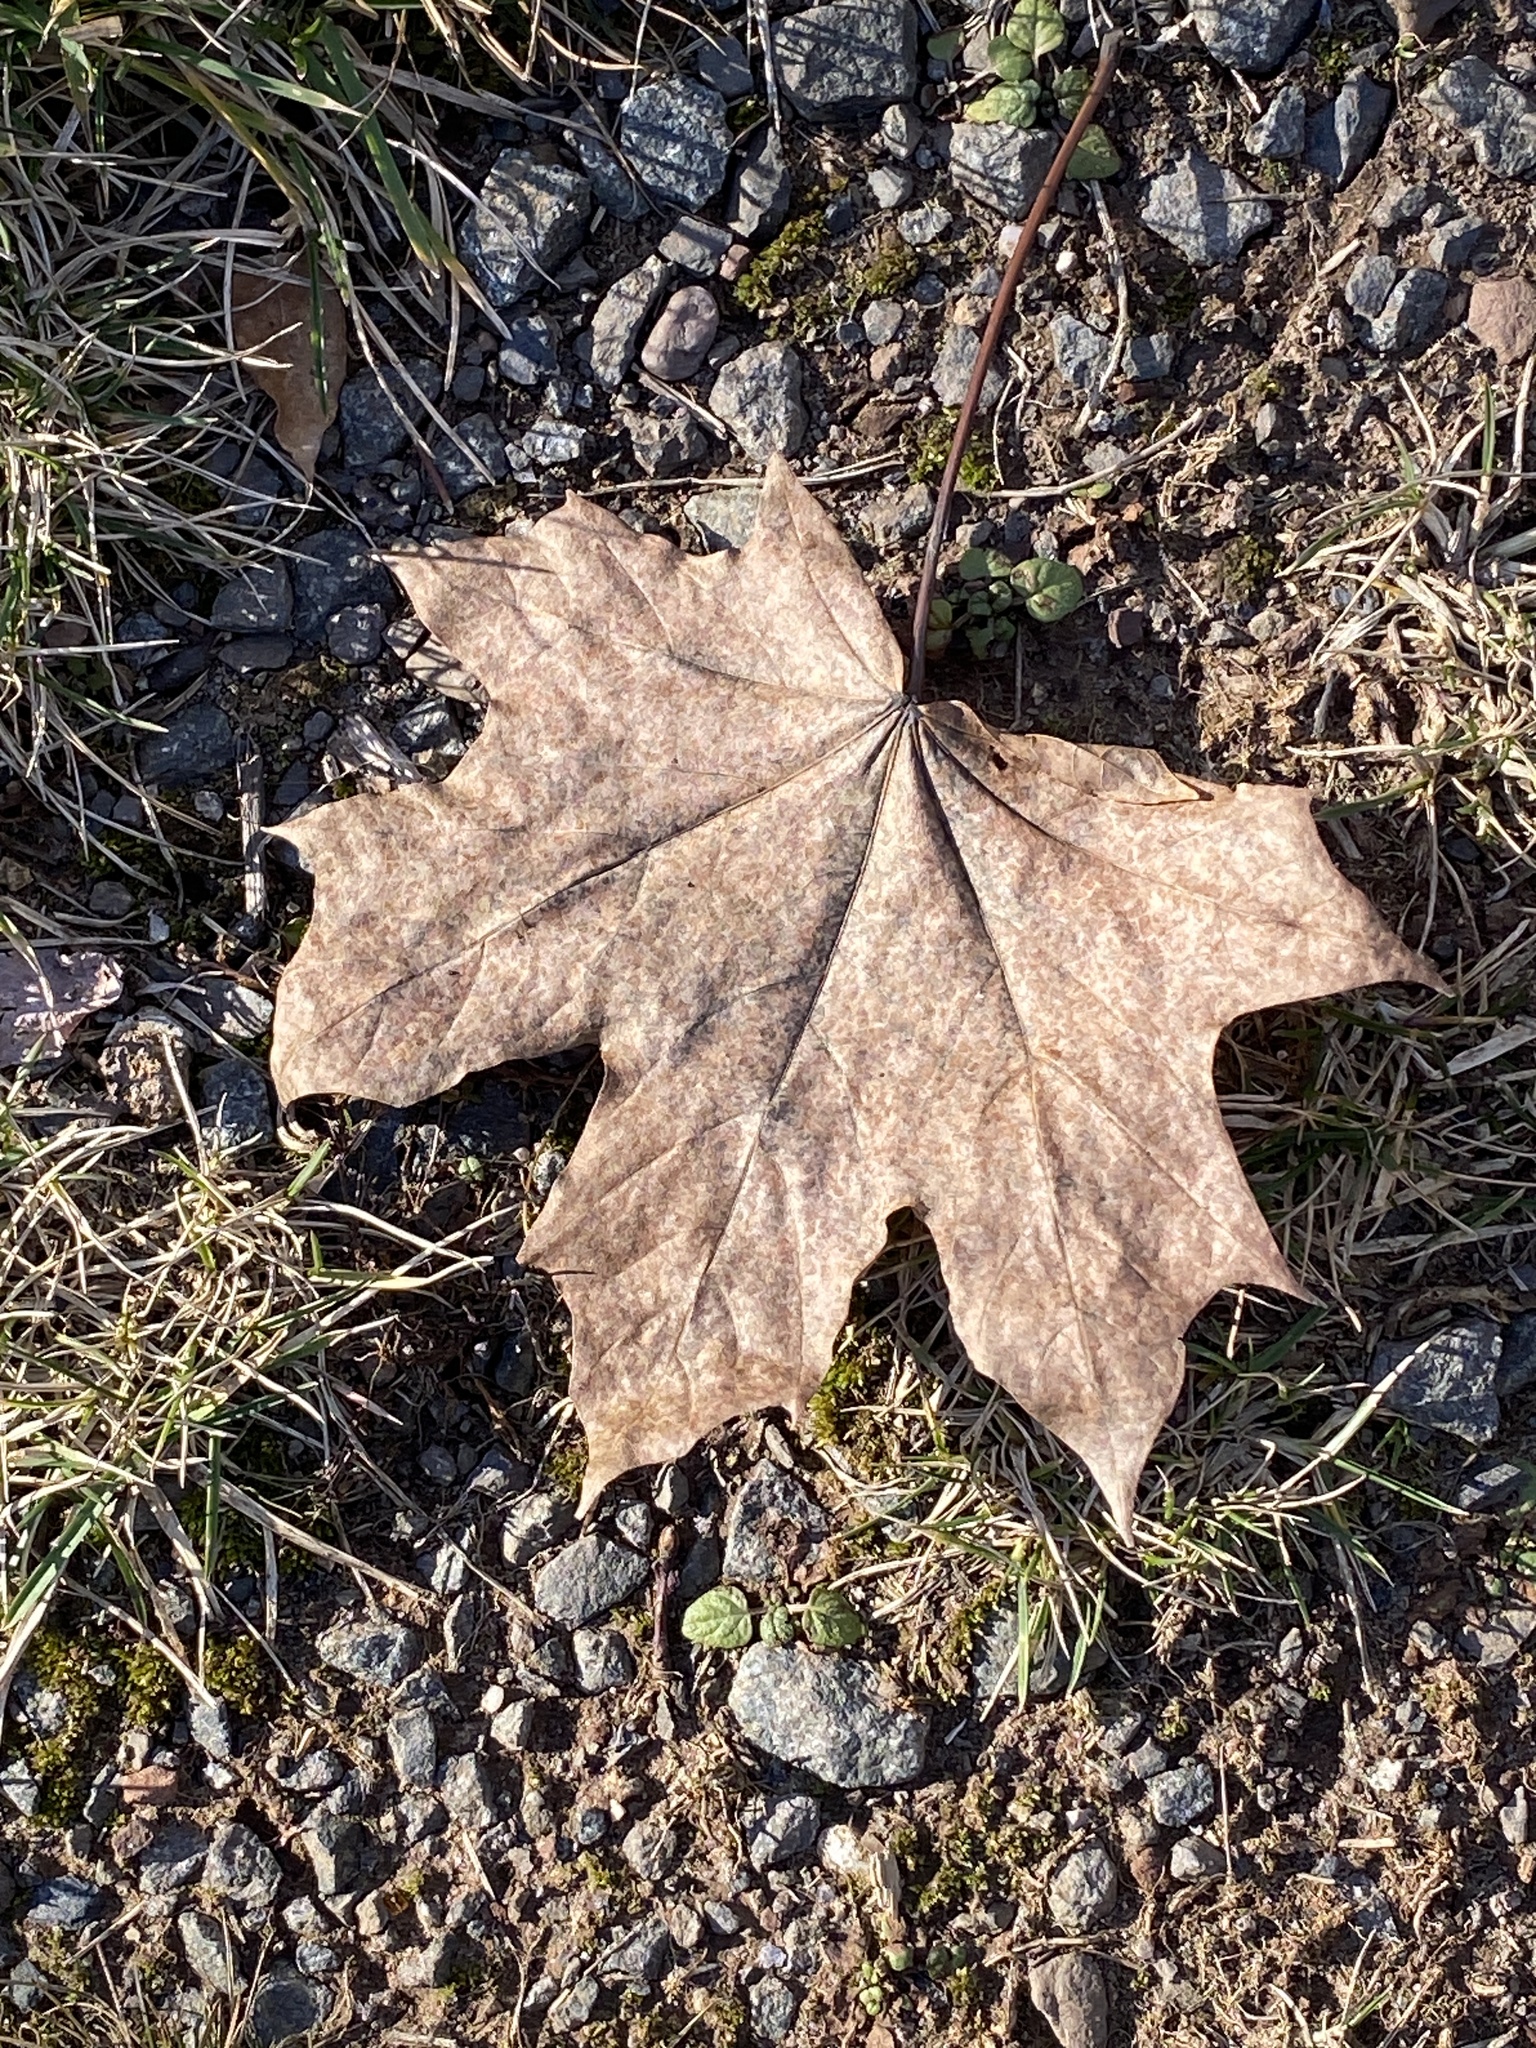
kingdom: Plantae
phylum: Tracheophyta
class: Magnoliopsida
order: Sapindales
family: Sapindaceae
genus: Acer
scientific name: Acer platanoides
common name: Norway maple
